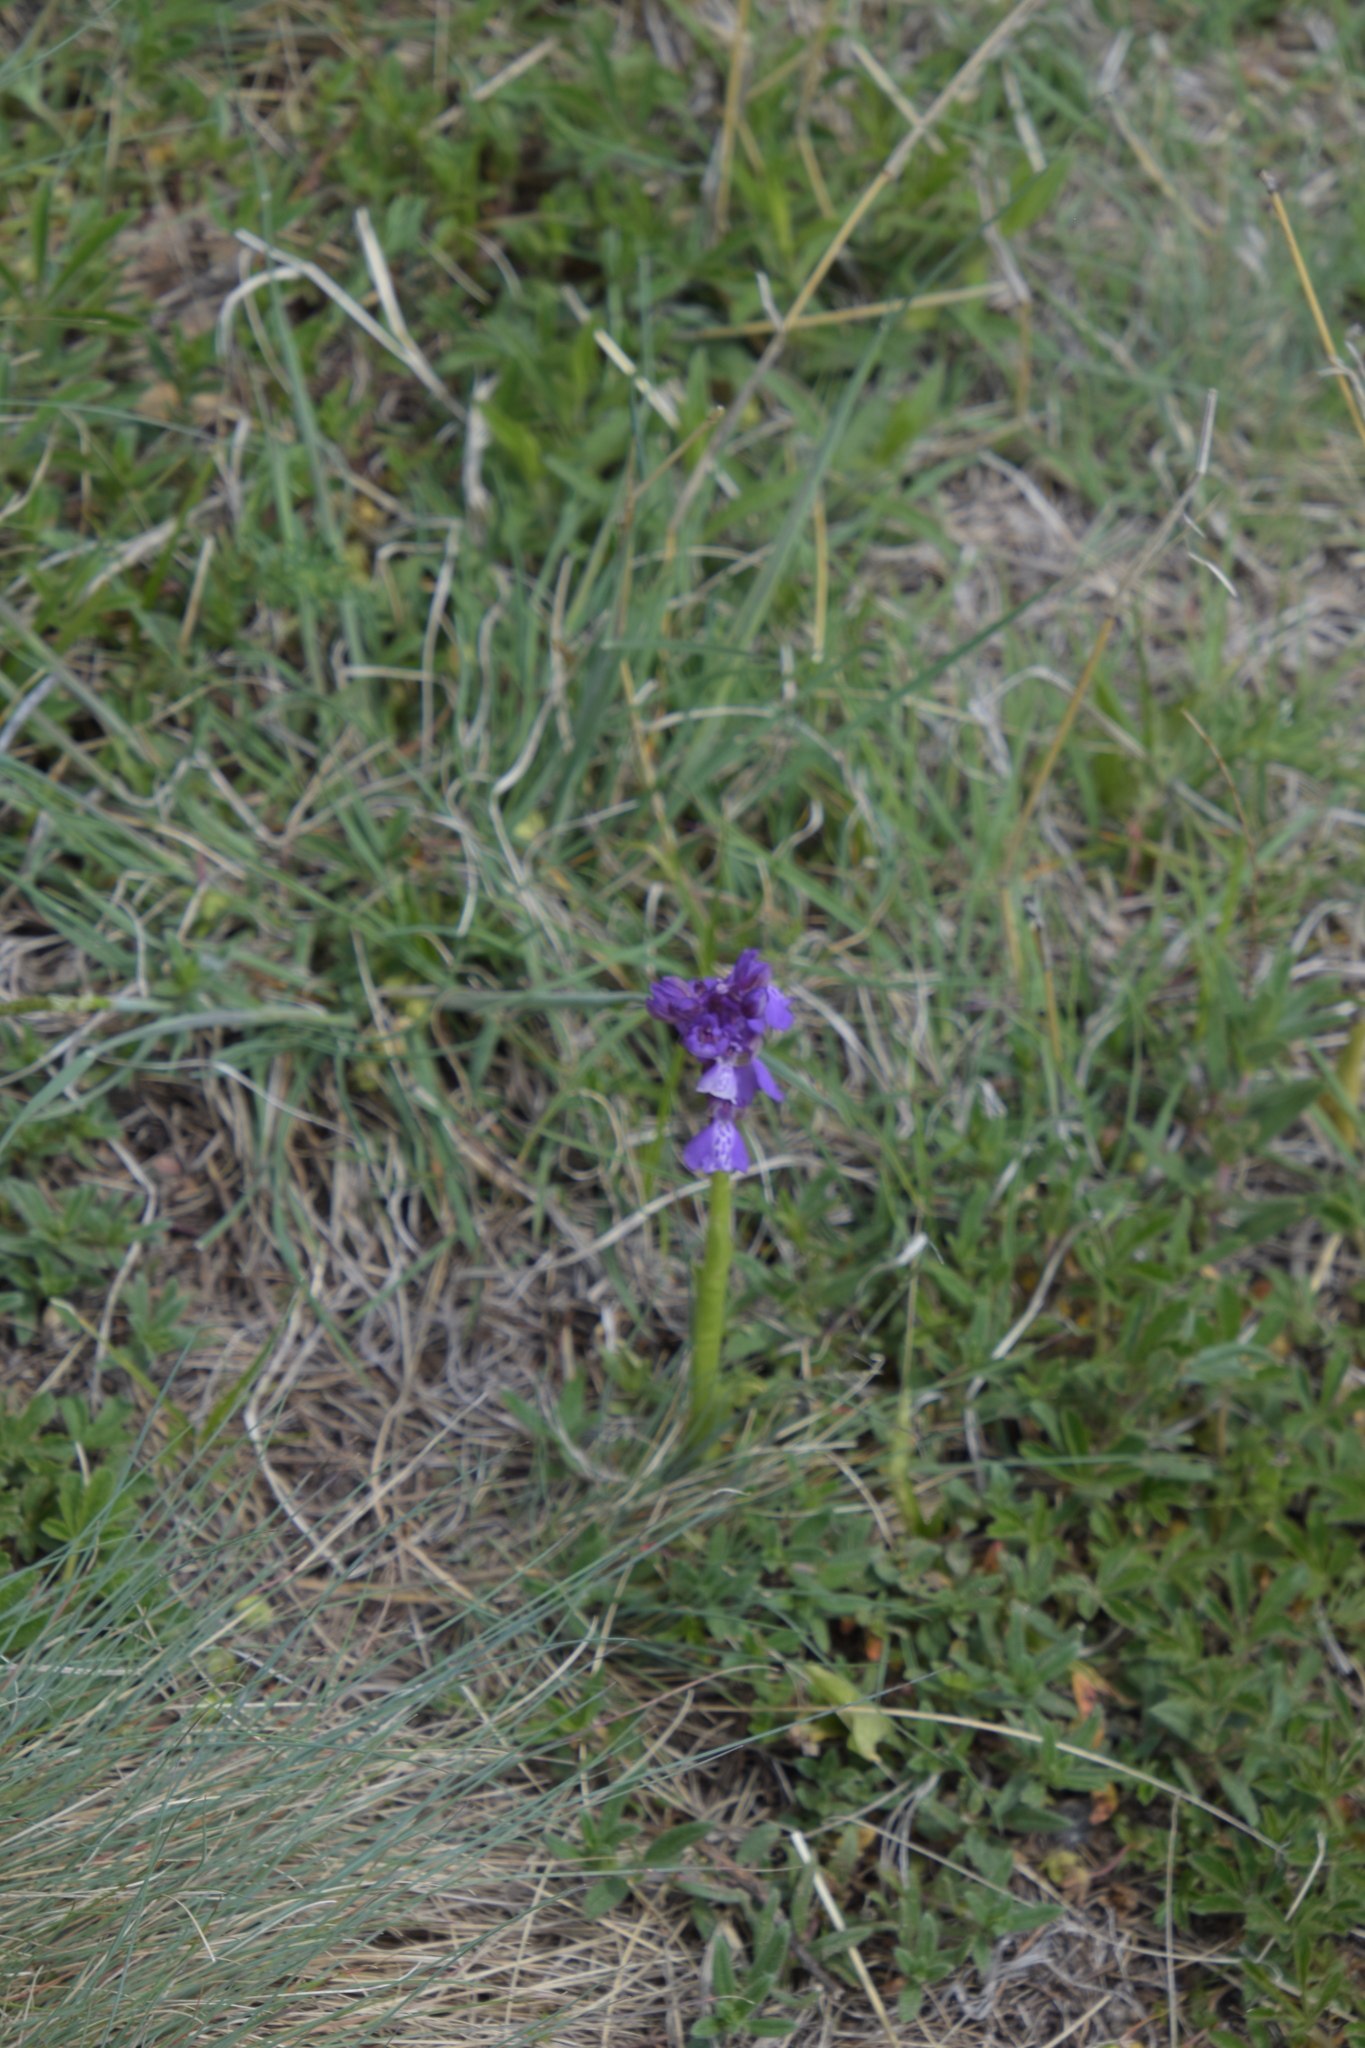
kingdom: Plantae
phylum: Tracheophyta
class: Liliopsida
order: Asparagales
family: Orchidaceae
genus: Anacamptis
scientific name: Anacamptis morio
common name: Green-winged orchid
